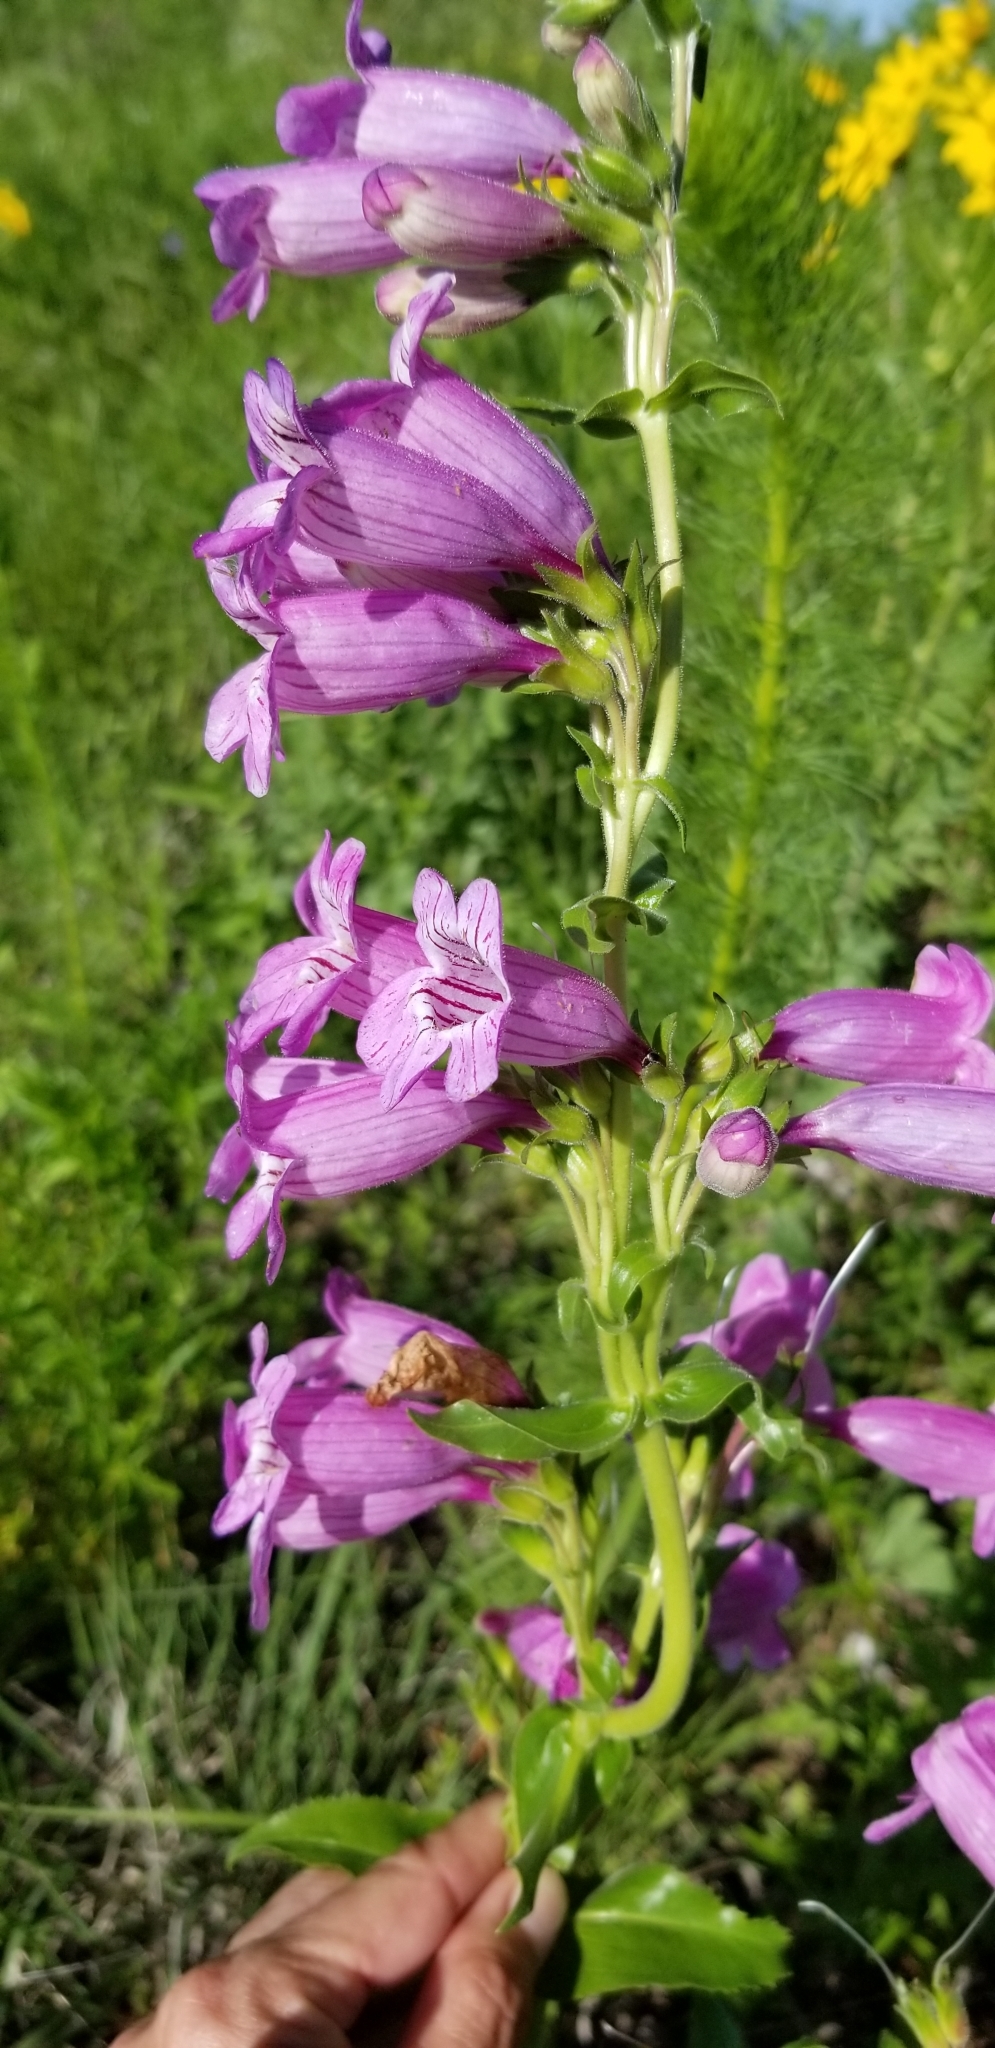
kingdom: Plantae
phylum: Tracheophyta
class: Magnoliopsida
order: Lamiales
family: Plantaginaceae
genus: Penstemon
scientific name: Penstemon cobaea
